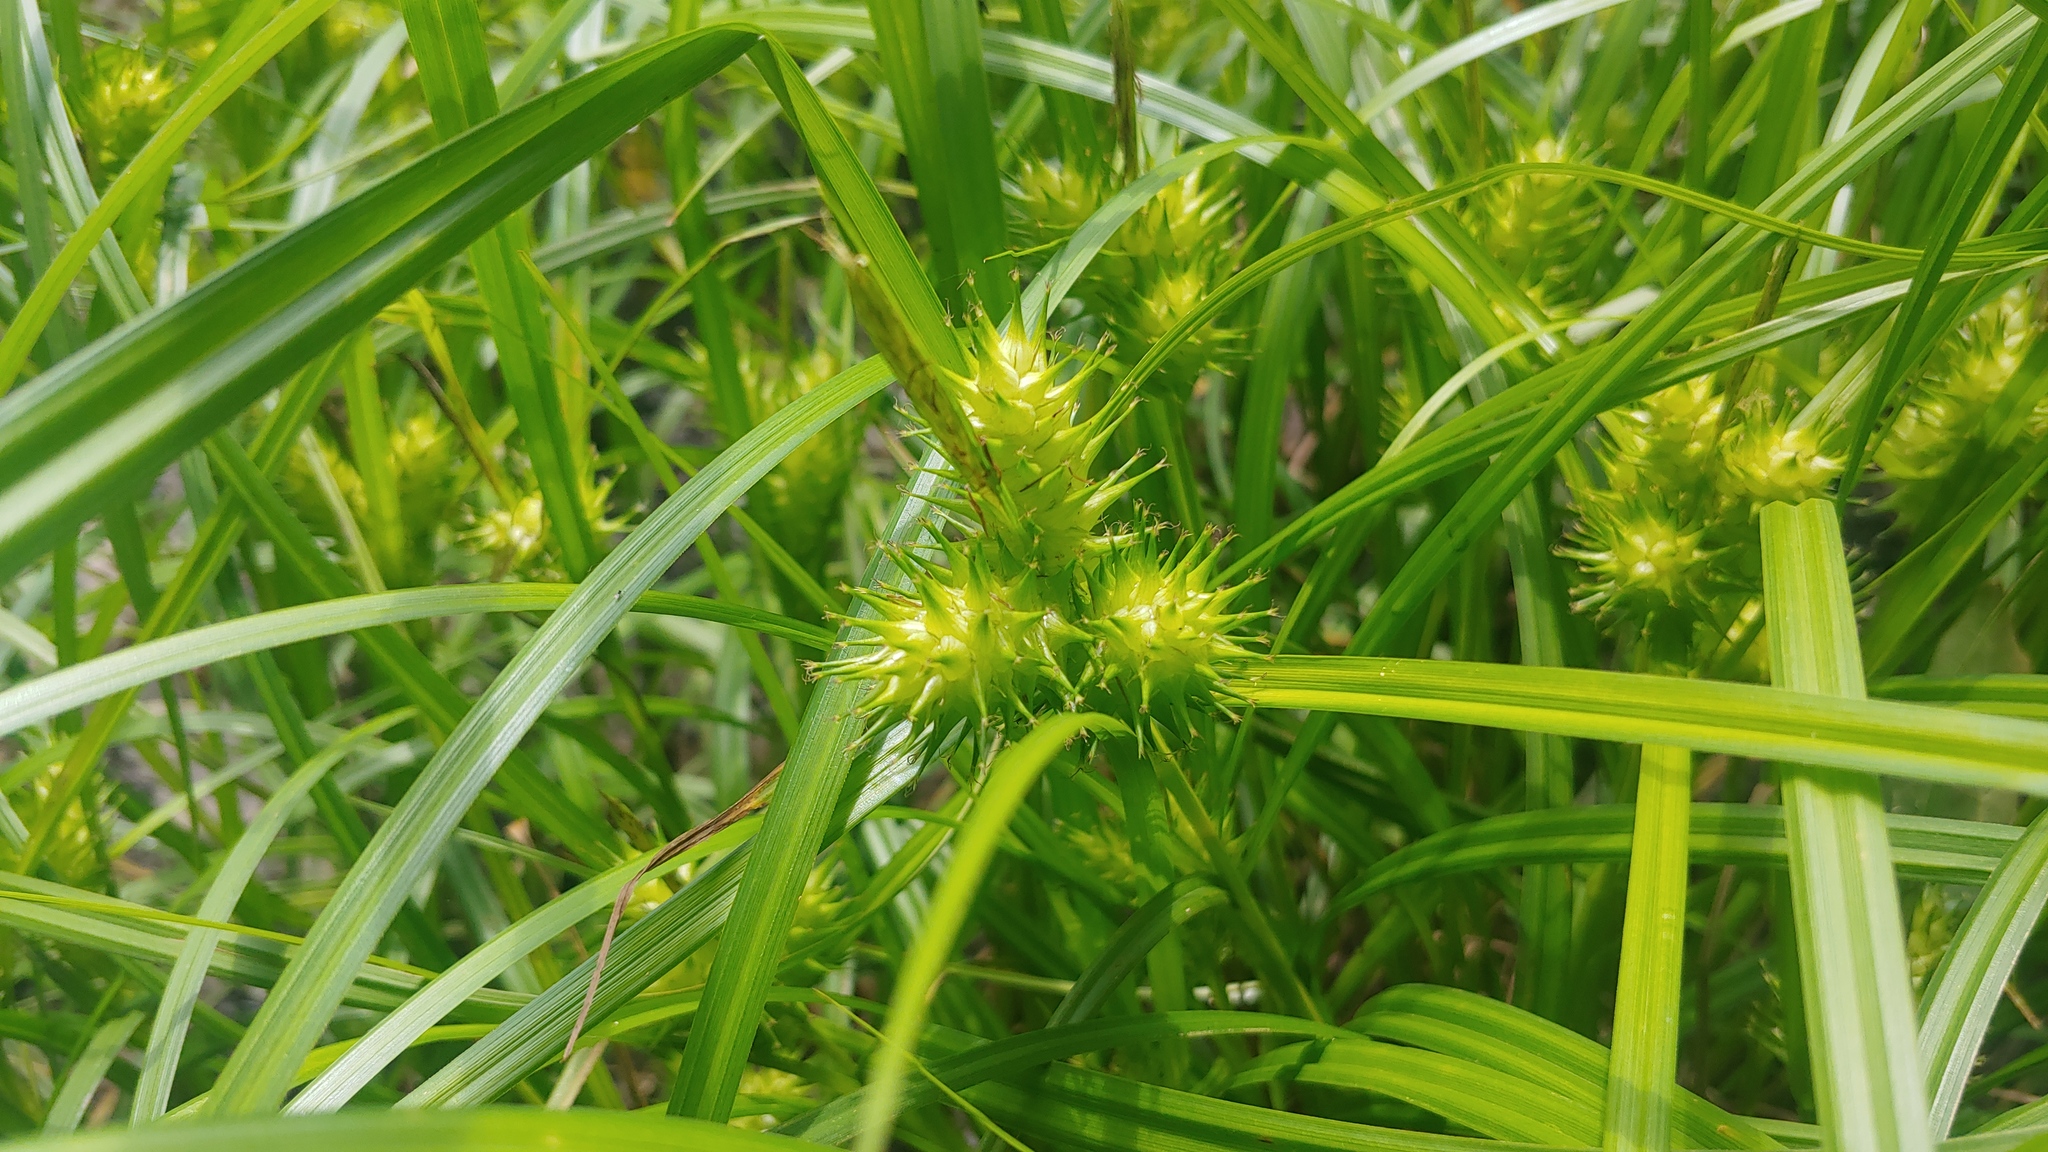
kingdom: Plantae
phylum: Tracheophyta
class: Liliopsida
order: Poales
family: Cyperaceae
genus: Carex
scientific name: Carex lupulina
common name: Hop sedge
